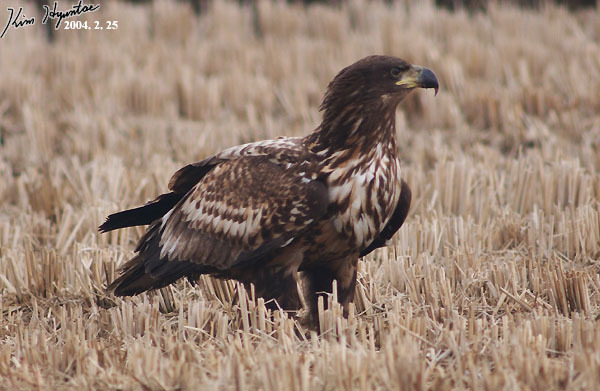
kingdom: Animalia
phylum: Chordata
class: Aves
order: Accipitriformes
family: Accipitridae
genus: Haliaeetus
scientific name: Haliaeetus albicilla
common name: White-tailed eagle
